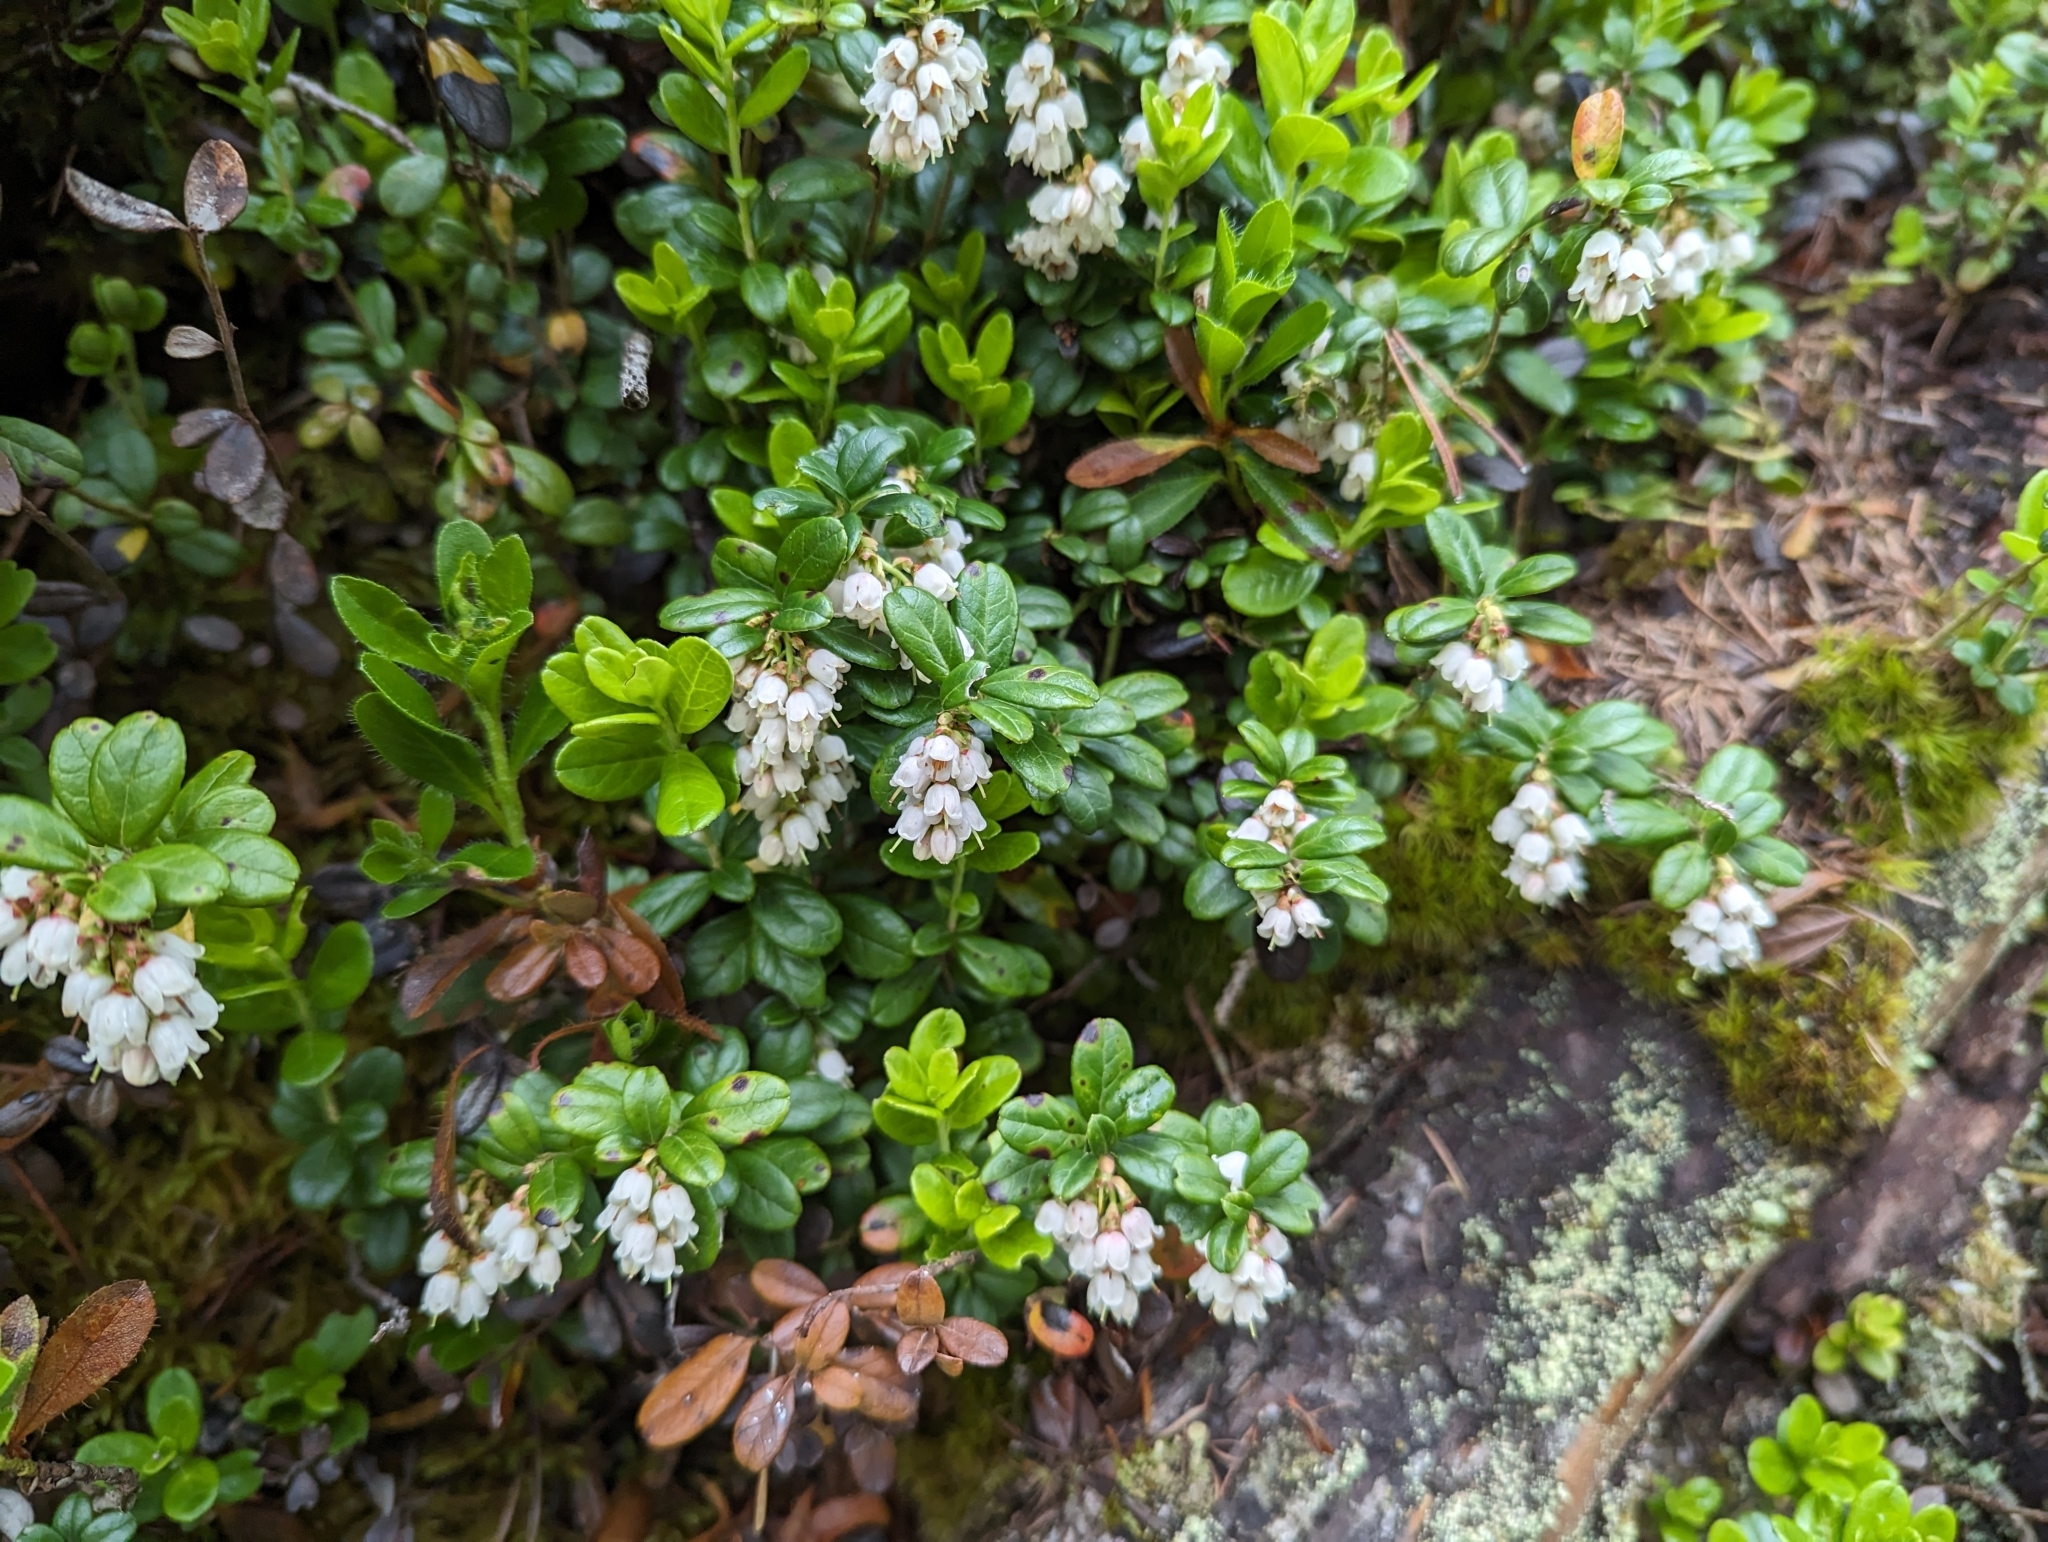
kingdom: Plantae
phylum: Tracheophyta
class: Magnoliopsida
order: Ericales
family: Ericaceae
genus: Vaccinium
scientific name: Vaccinium vitis-idaea
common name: Cowberry
